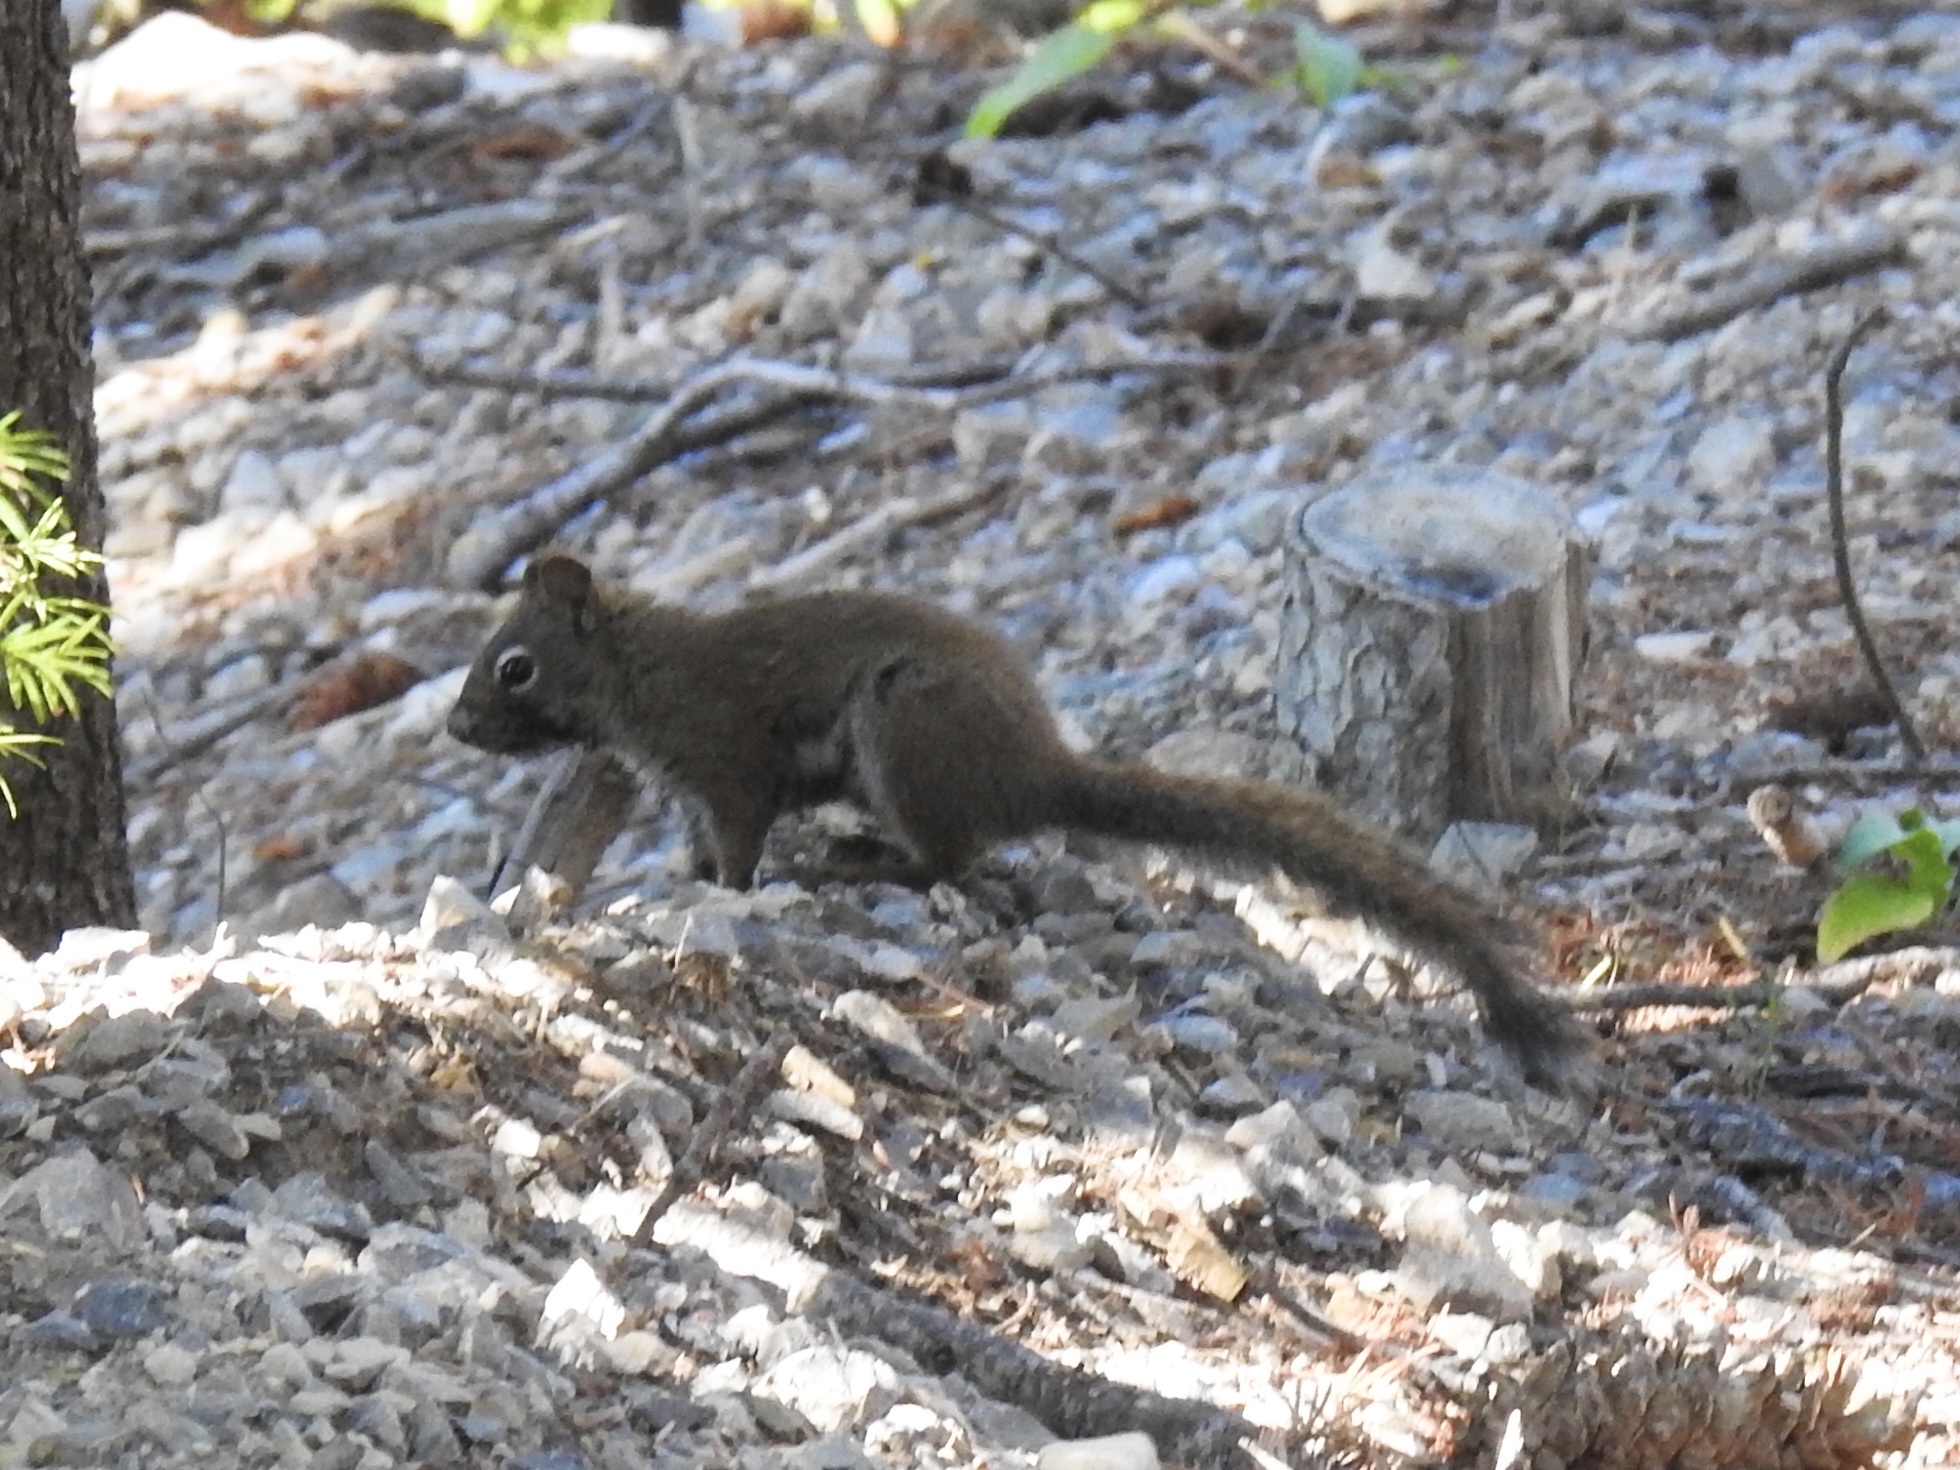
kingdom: Animalia
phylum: Chordata
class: Mammalia
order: Rodentia
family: Sciuridae
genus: Tamiasciurus
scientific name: Tamiasciurus hudsonicus
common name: Red squirrel
